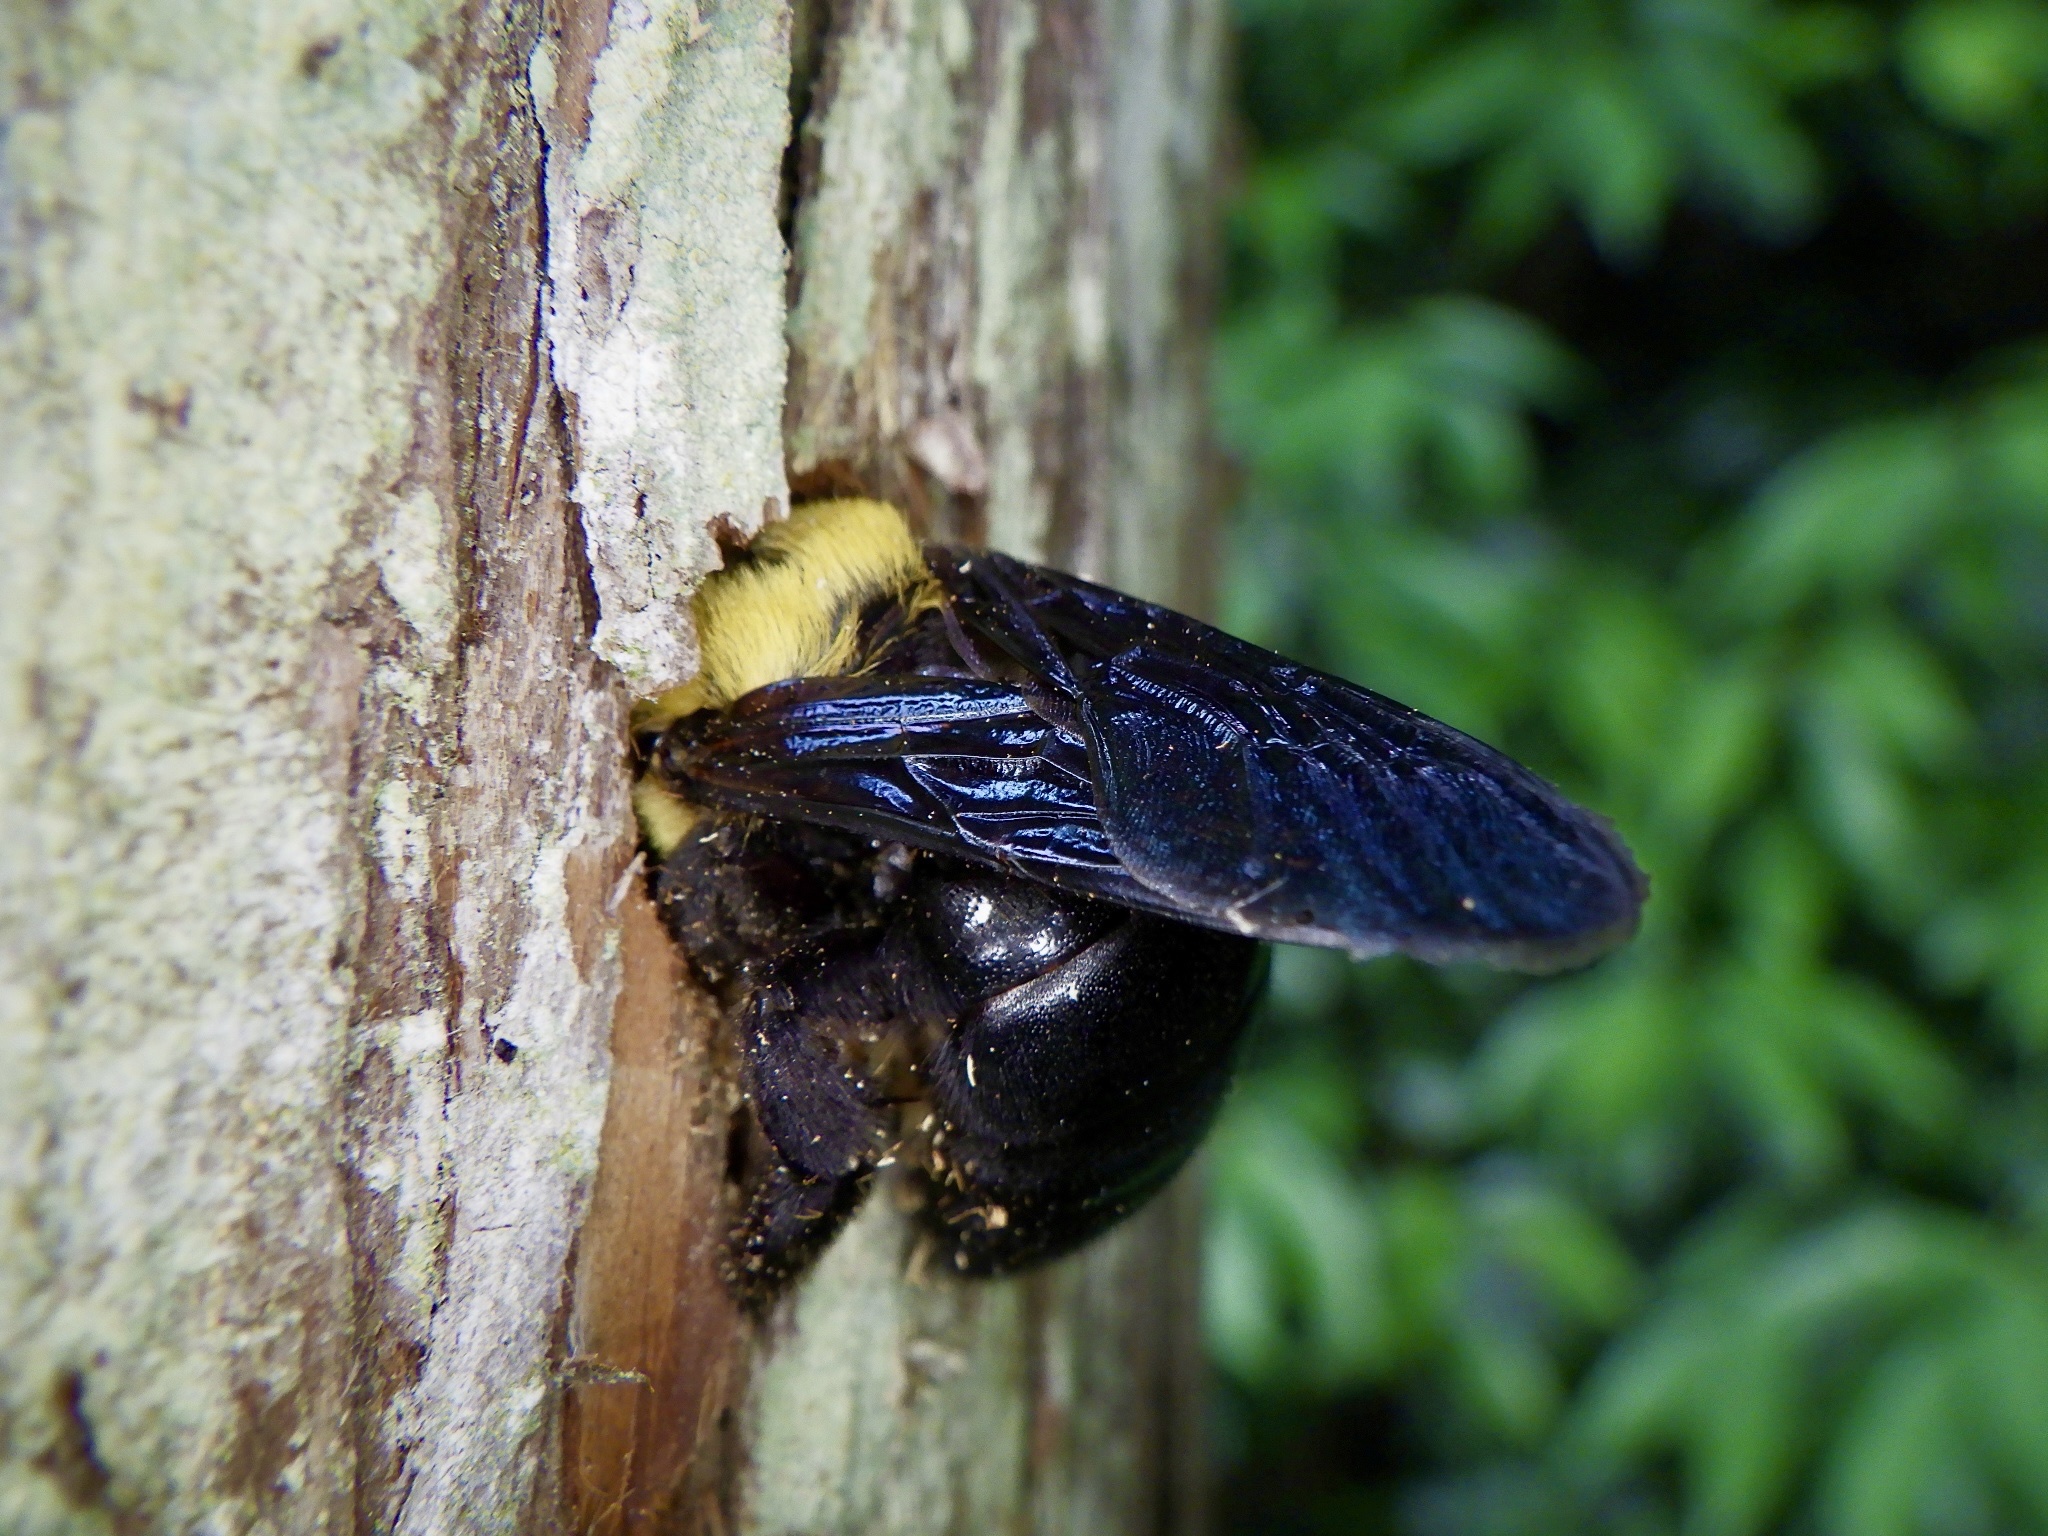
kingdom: Animalia
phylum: Arthropoda
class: Insecta
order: Hymenoptera
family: Apidae
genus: Xylocopa
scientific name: Xylocopa appendiculata
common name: Japanese carpenter bee
